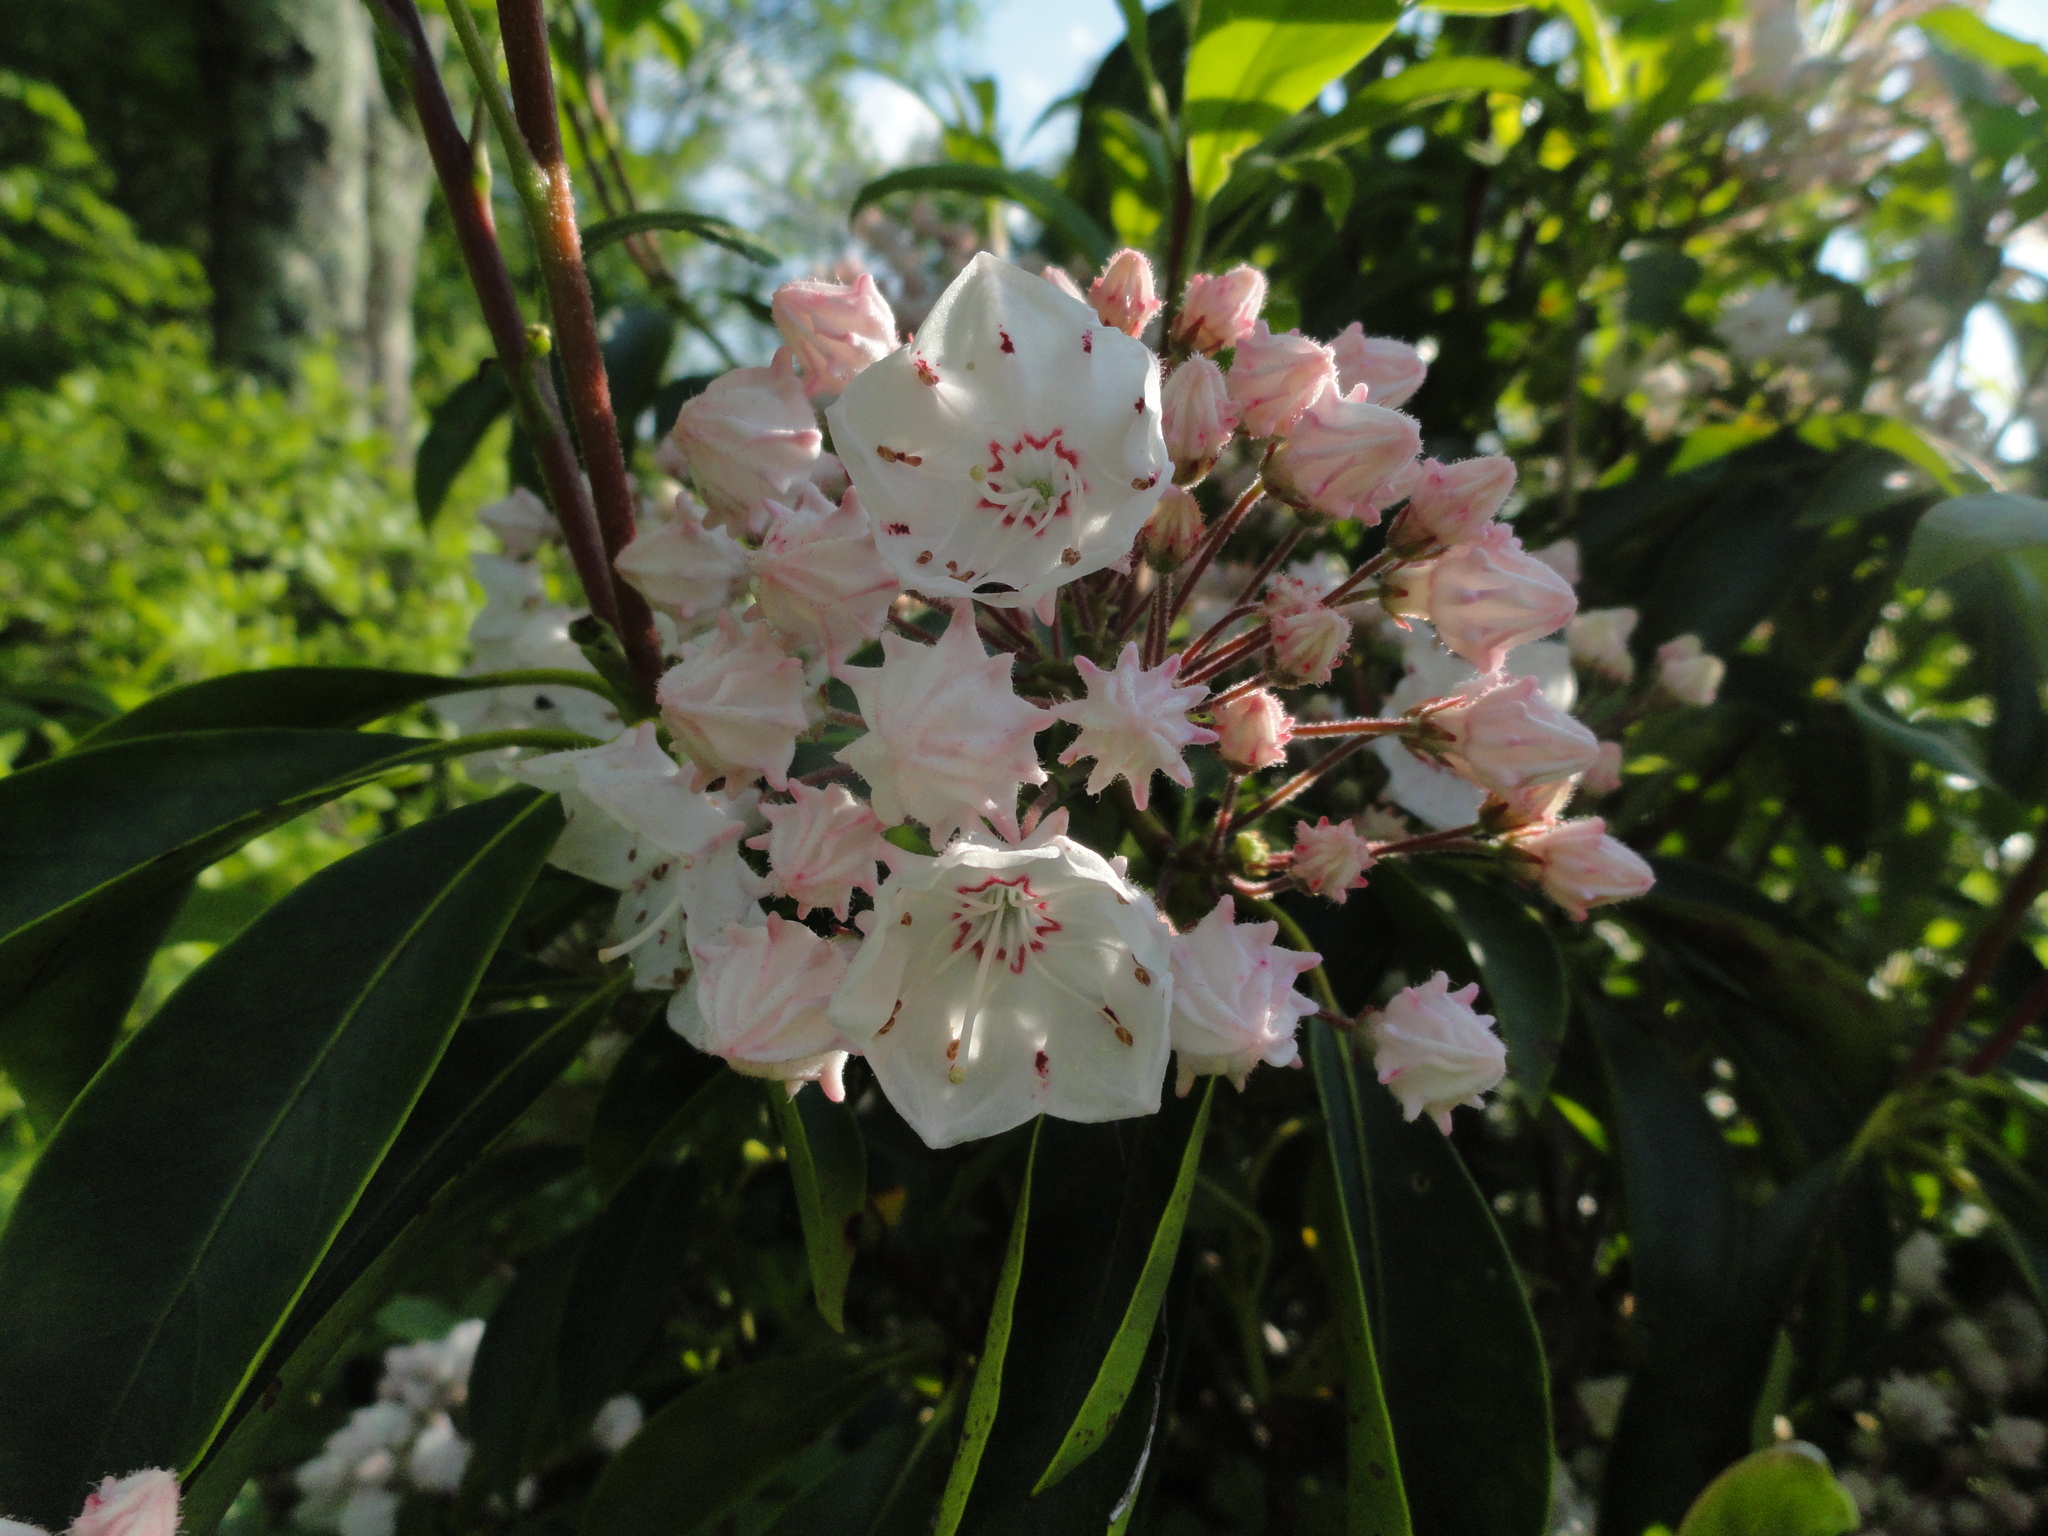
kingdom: Plantae
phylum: Tracheophyta
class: Magnoliopsida
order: Ericales
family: Ericaceae
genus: Kalmia
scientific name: Kalmia latifolia
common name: Mountain-laurel
